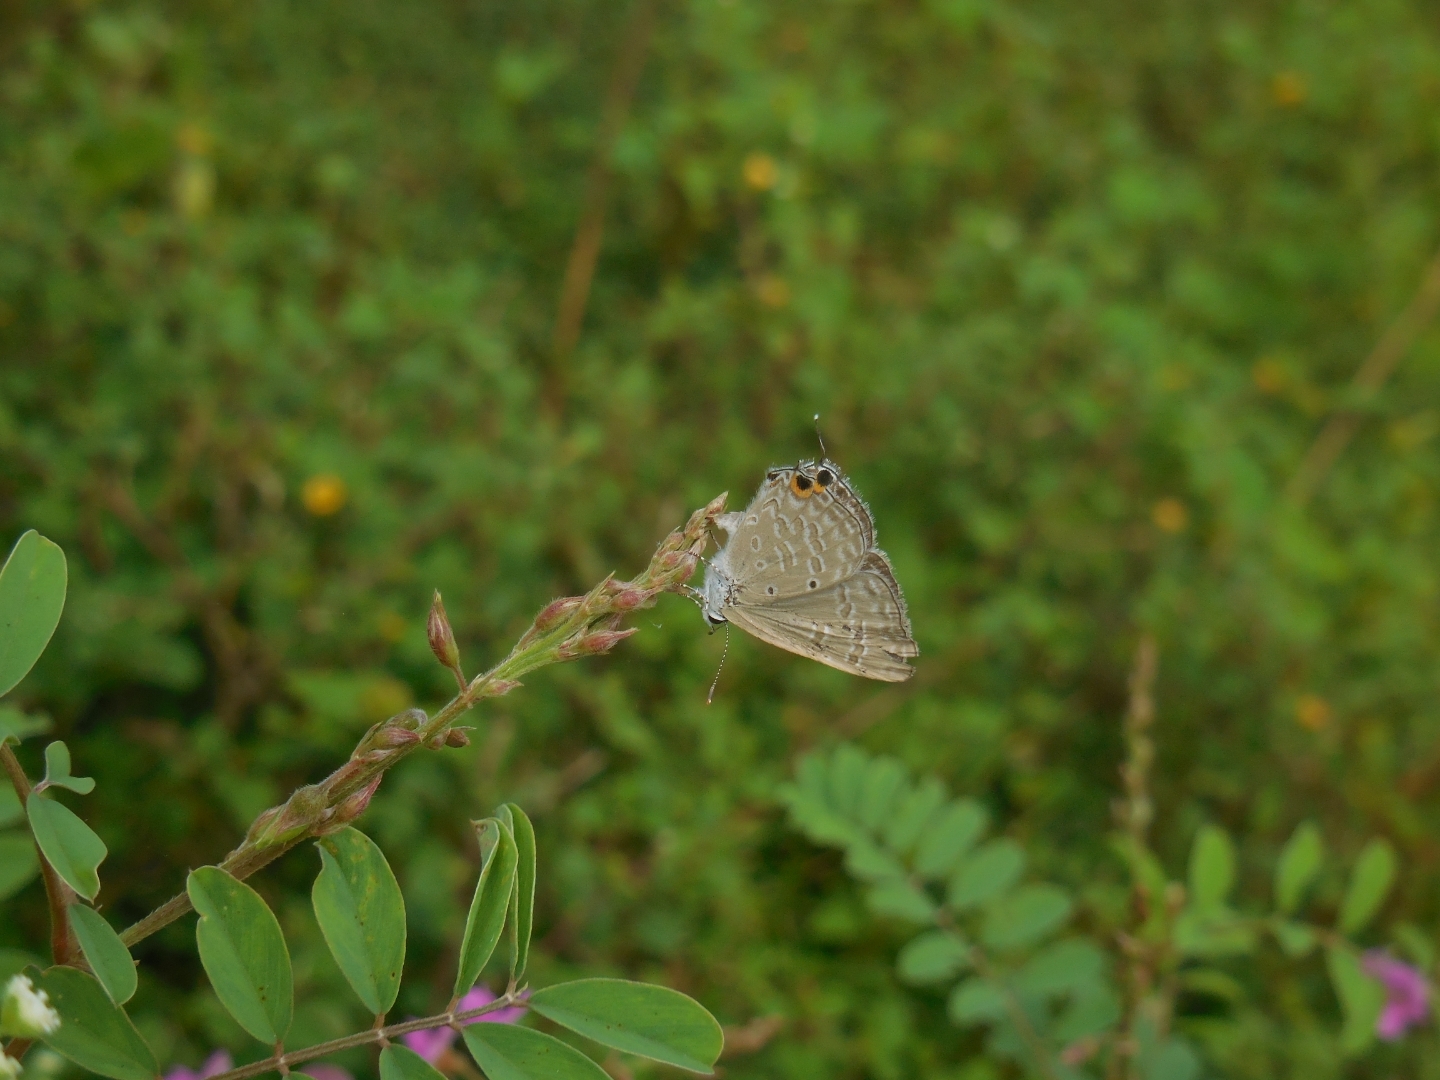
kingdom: Animalia
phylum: Arthropoda
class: Insecta
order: Lepidoptera
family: Lycaenidae
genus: Catochrysops
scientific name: Catochrysops strabo
